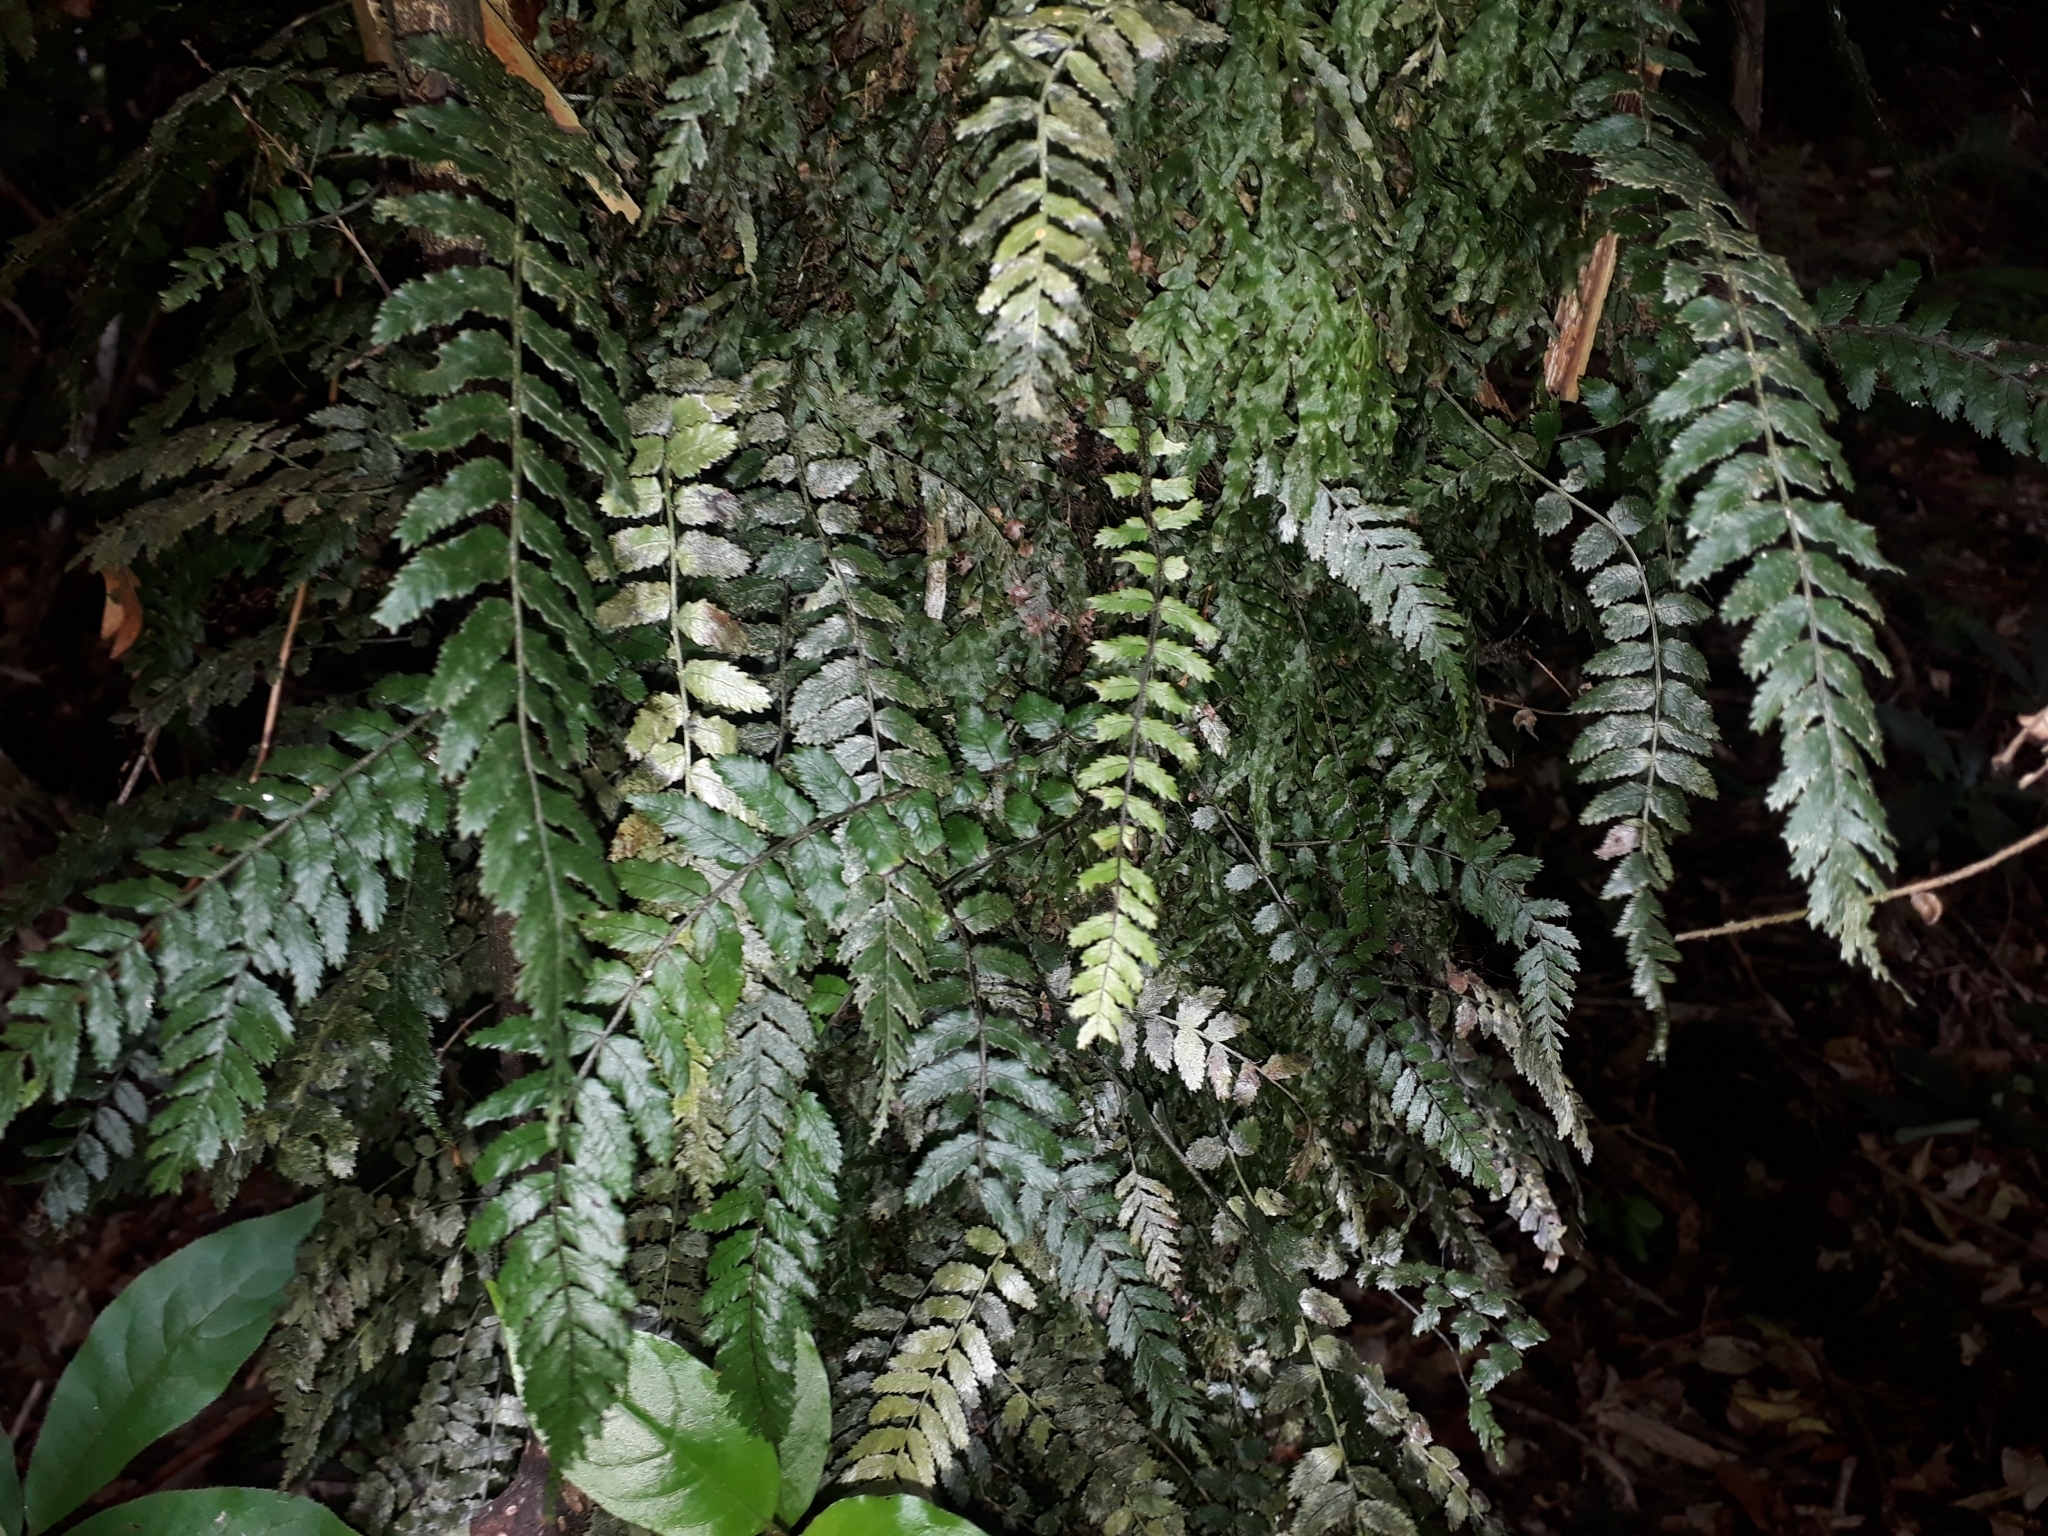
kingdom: Plantae
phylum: Tracheophyta
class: Polypodiopsida
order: Polypodiales
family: Blechnaceae
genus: Icarus
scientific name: Icarus filiformis
